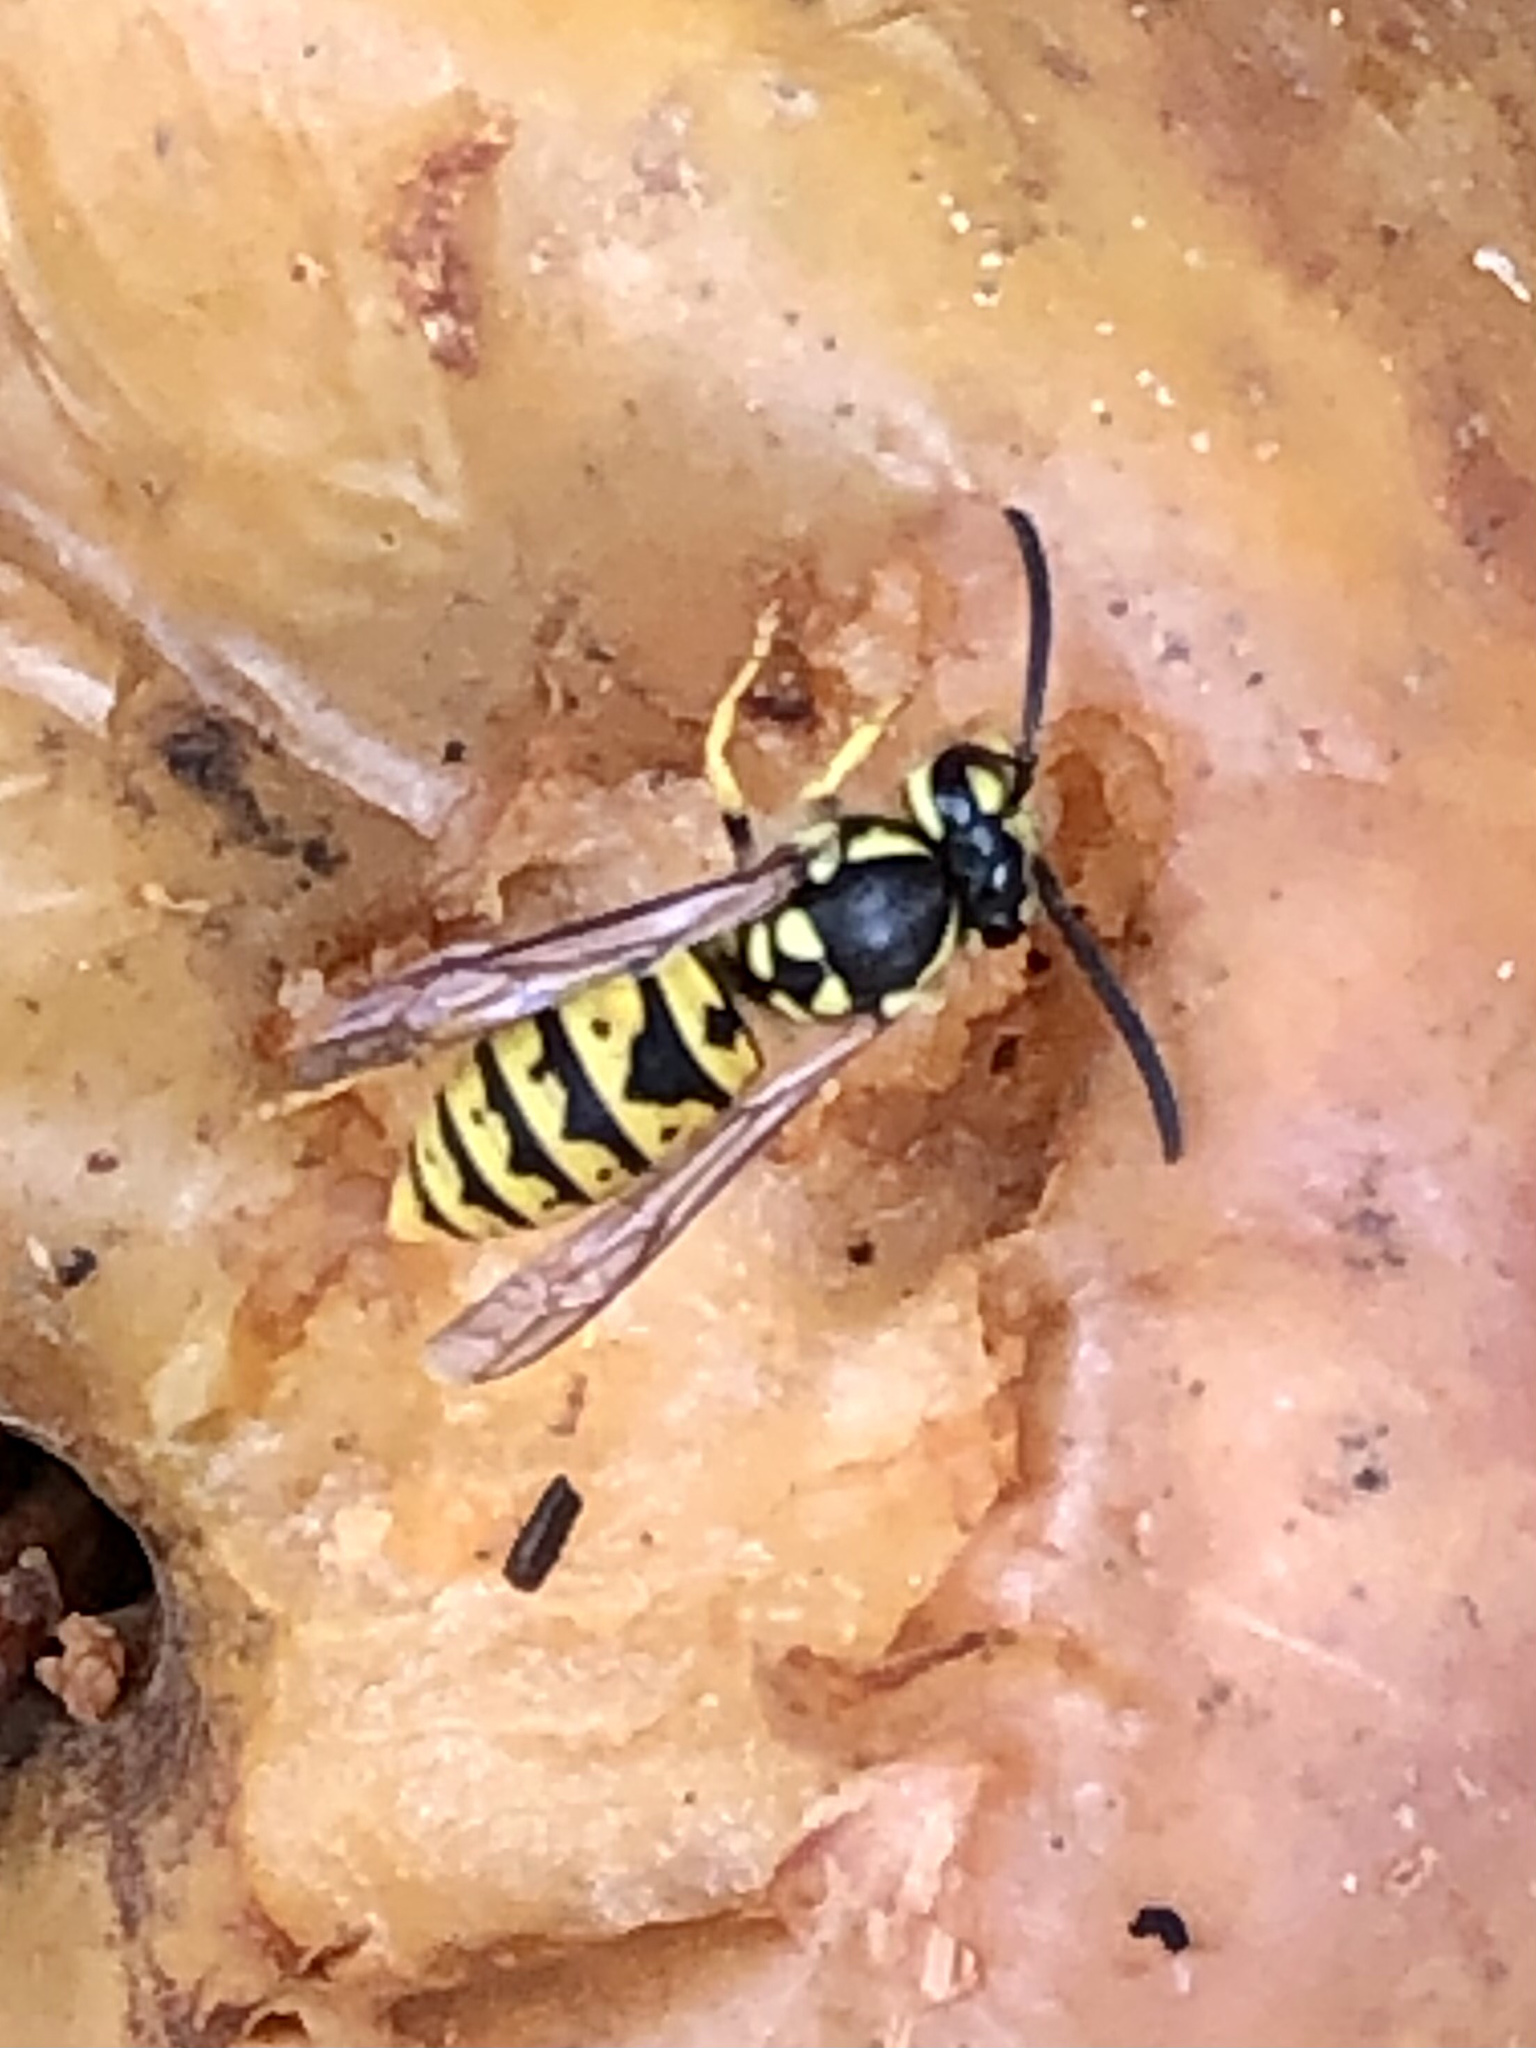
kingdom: Animalia
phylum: Arthropoda
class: Insecta
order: Hymenoptera
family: Vespidae
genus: Vespula
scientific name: Vespula germanica
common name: German wasp
